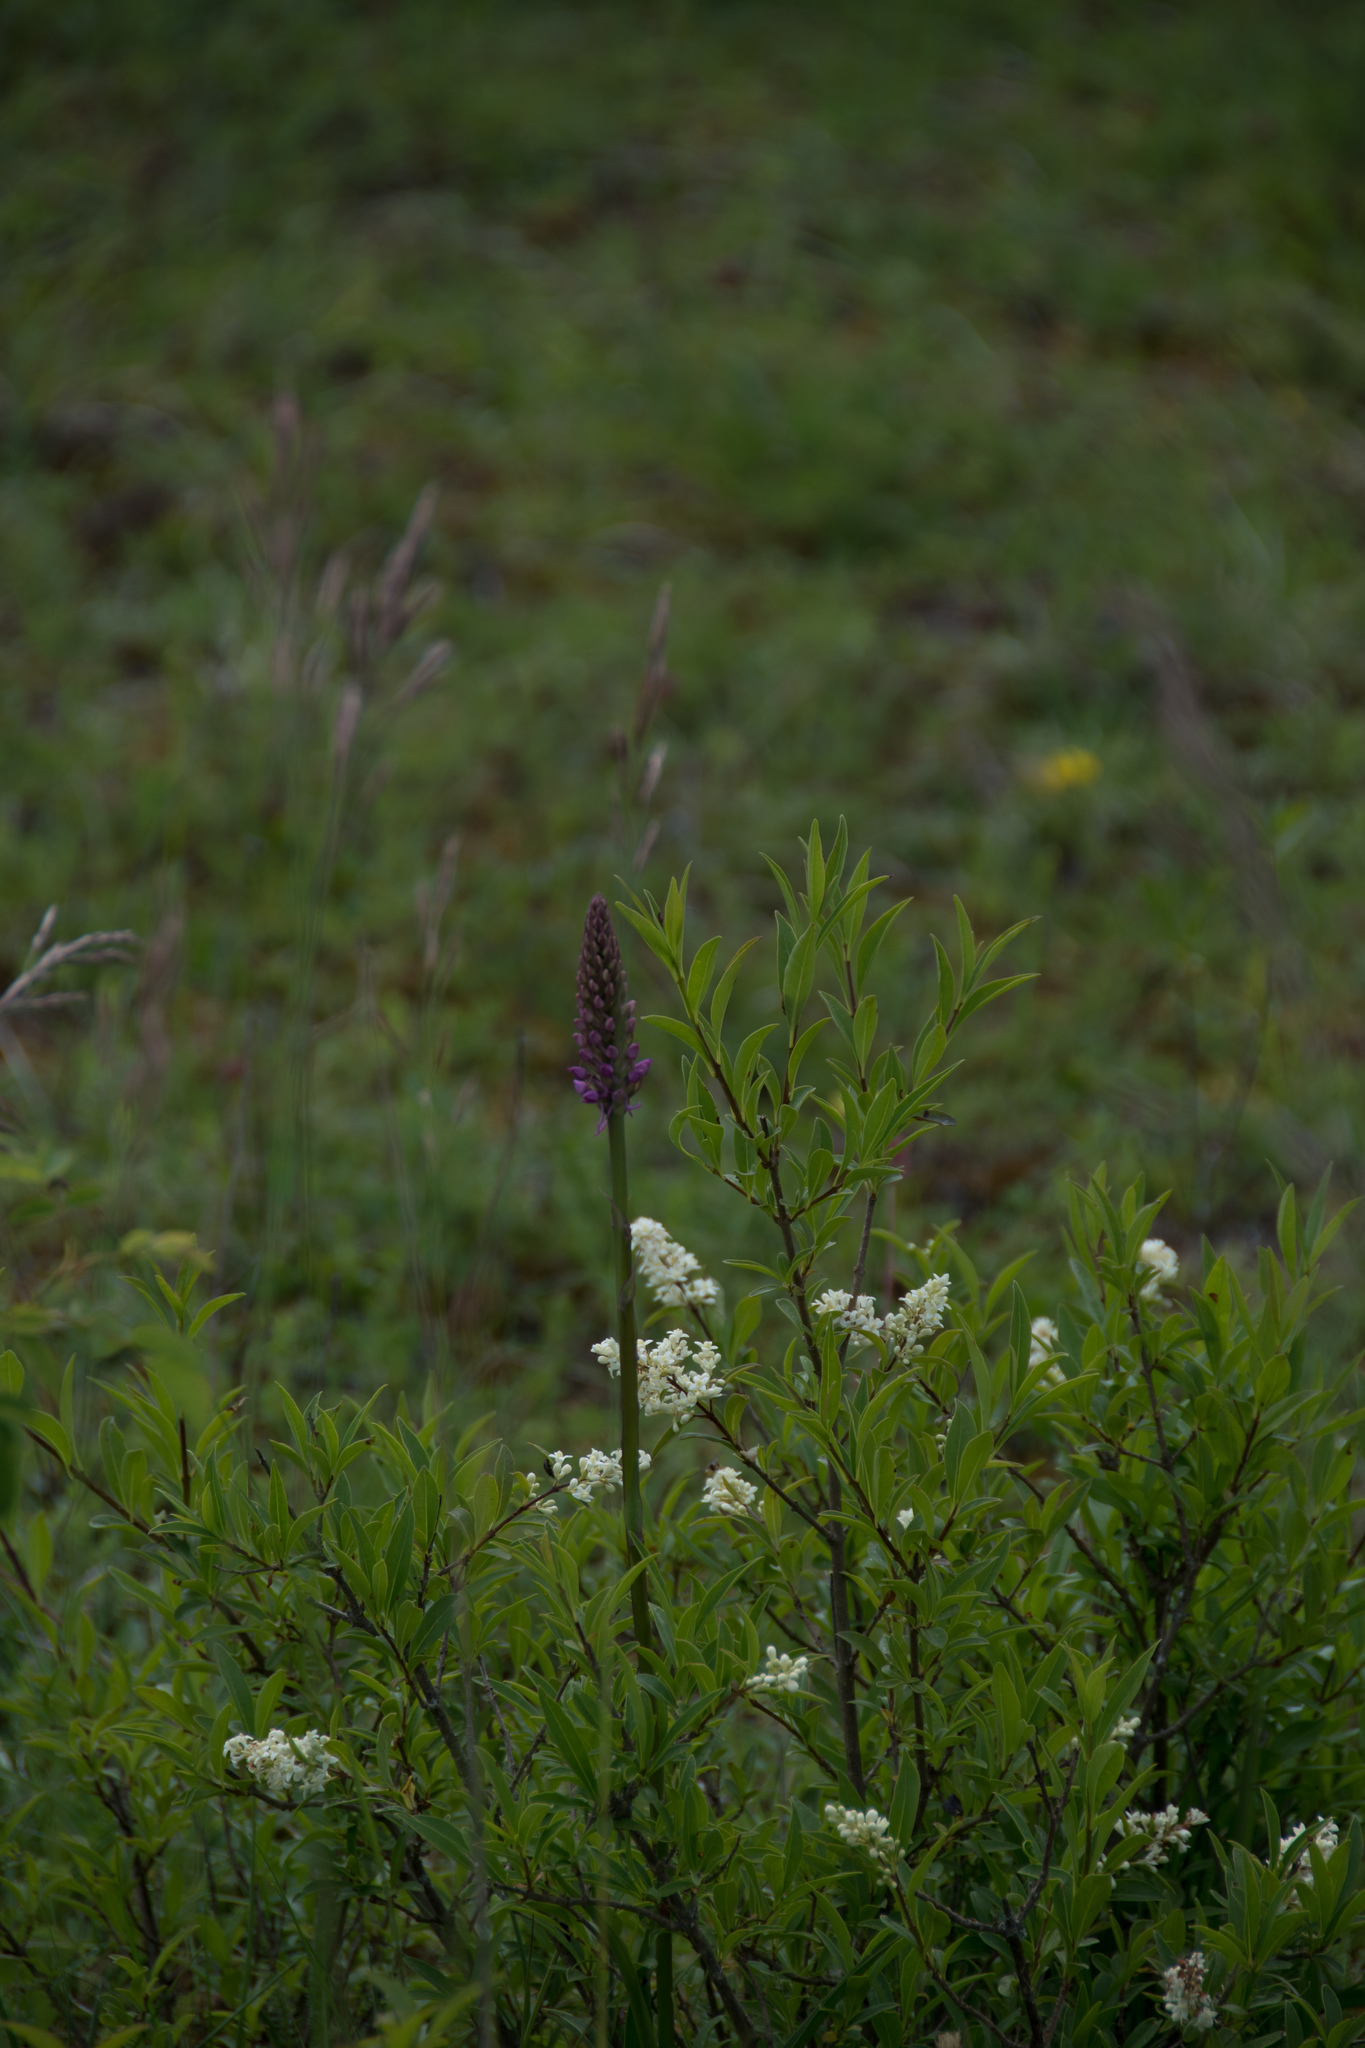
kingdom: Plantae
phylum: Tracheophyta
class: Liliopsida
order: Asparagales
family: Orchidaceae
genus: Gymnadenia
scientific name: Gymnadenia conopsea
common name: Fragrant orchid
